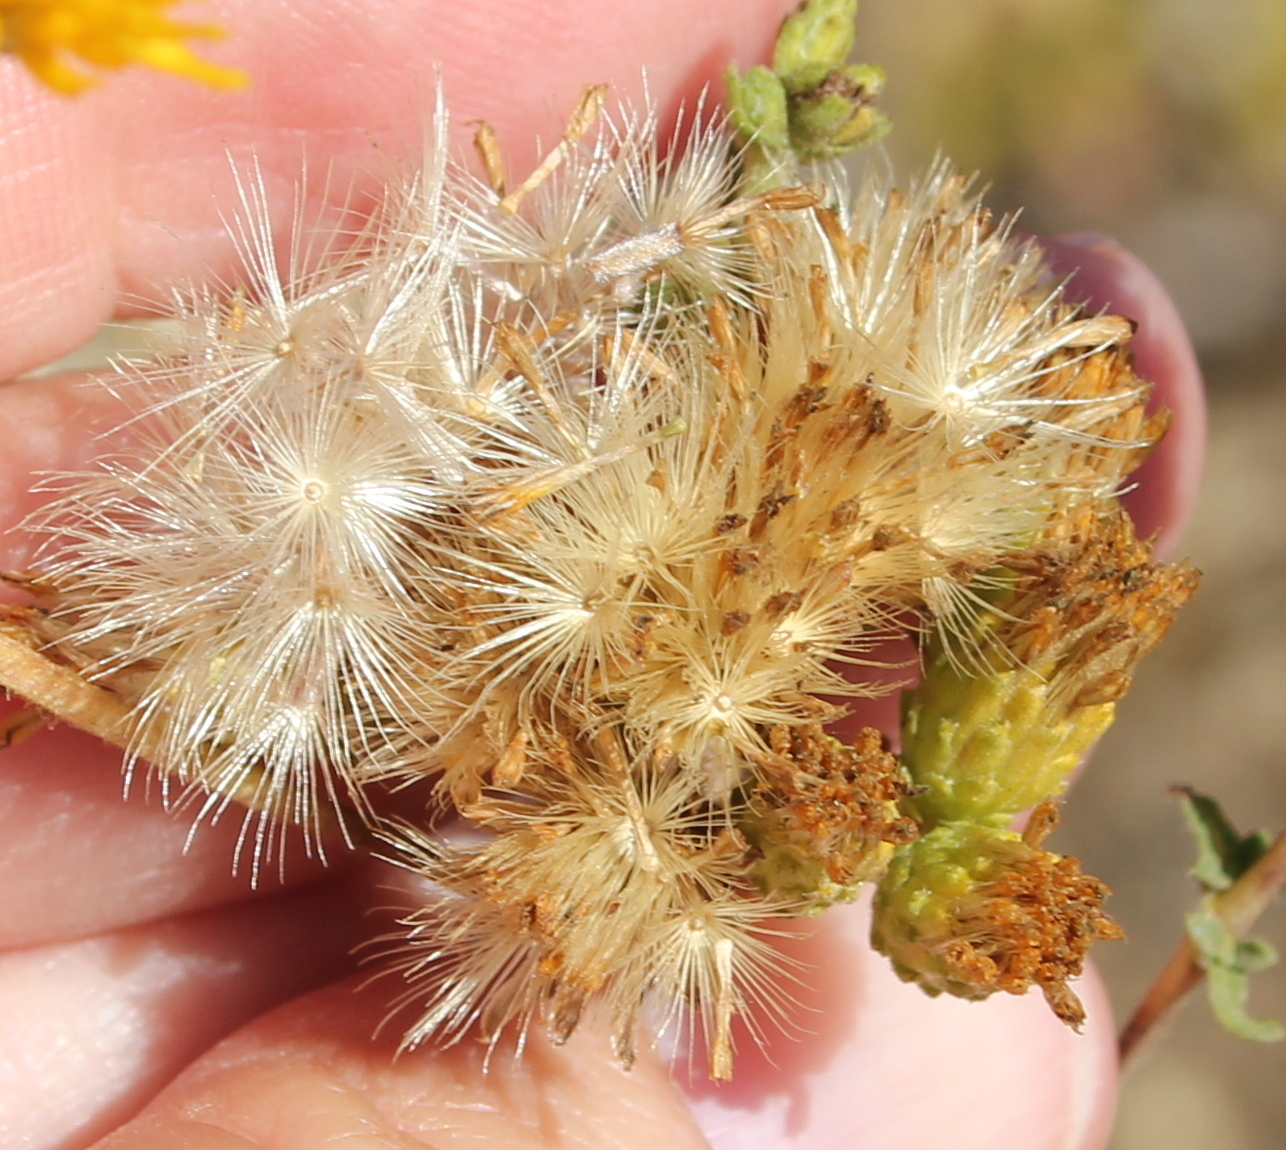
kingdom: Plantae
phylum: Tracheophyta
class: Magnoliopsida
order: Asterales
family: Asteraceae
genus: Isocoma
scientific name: Isocoma menziesii
